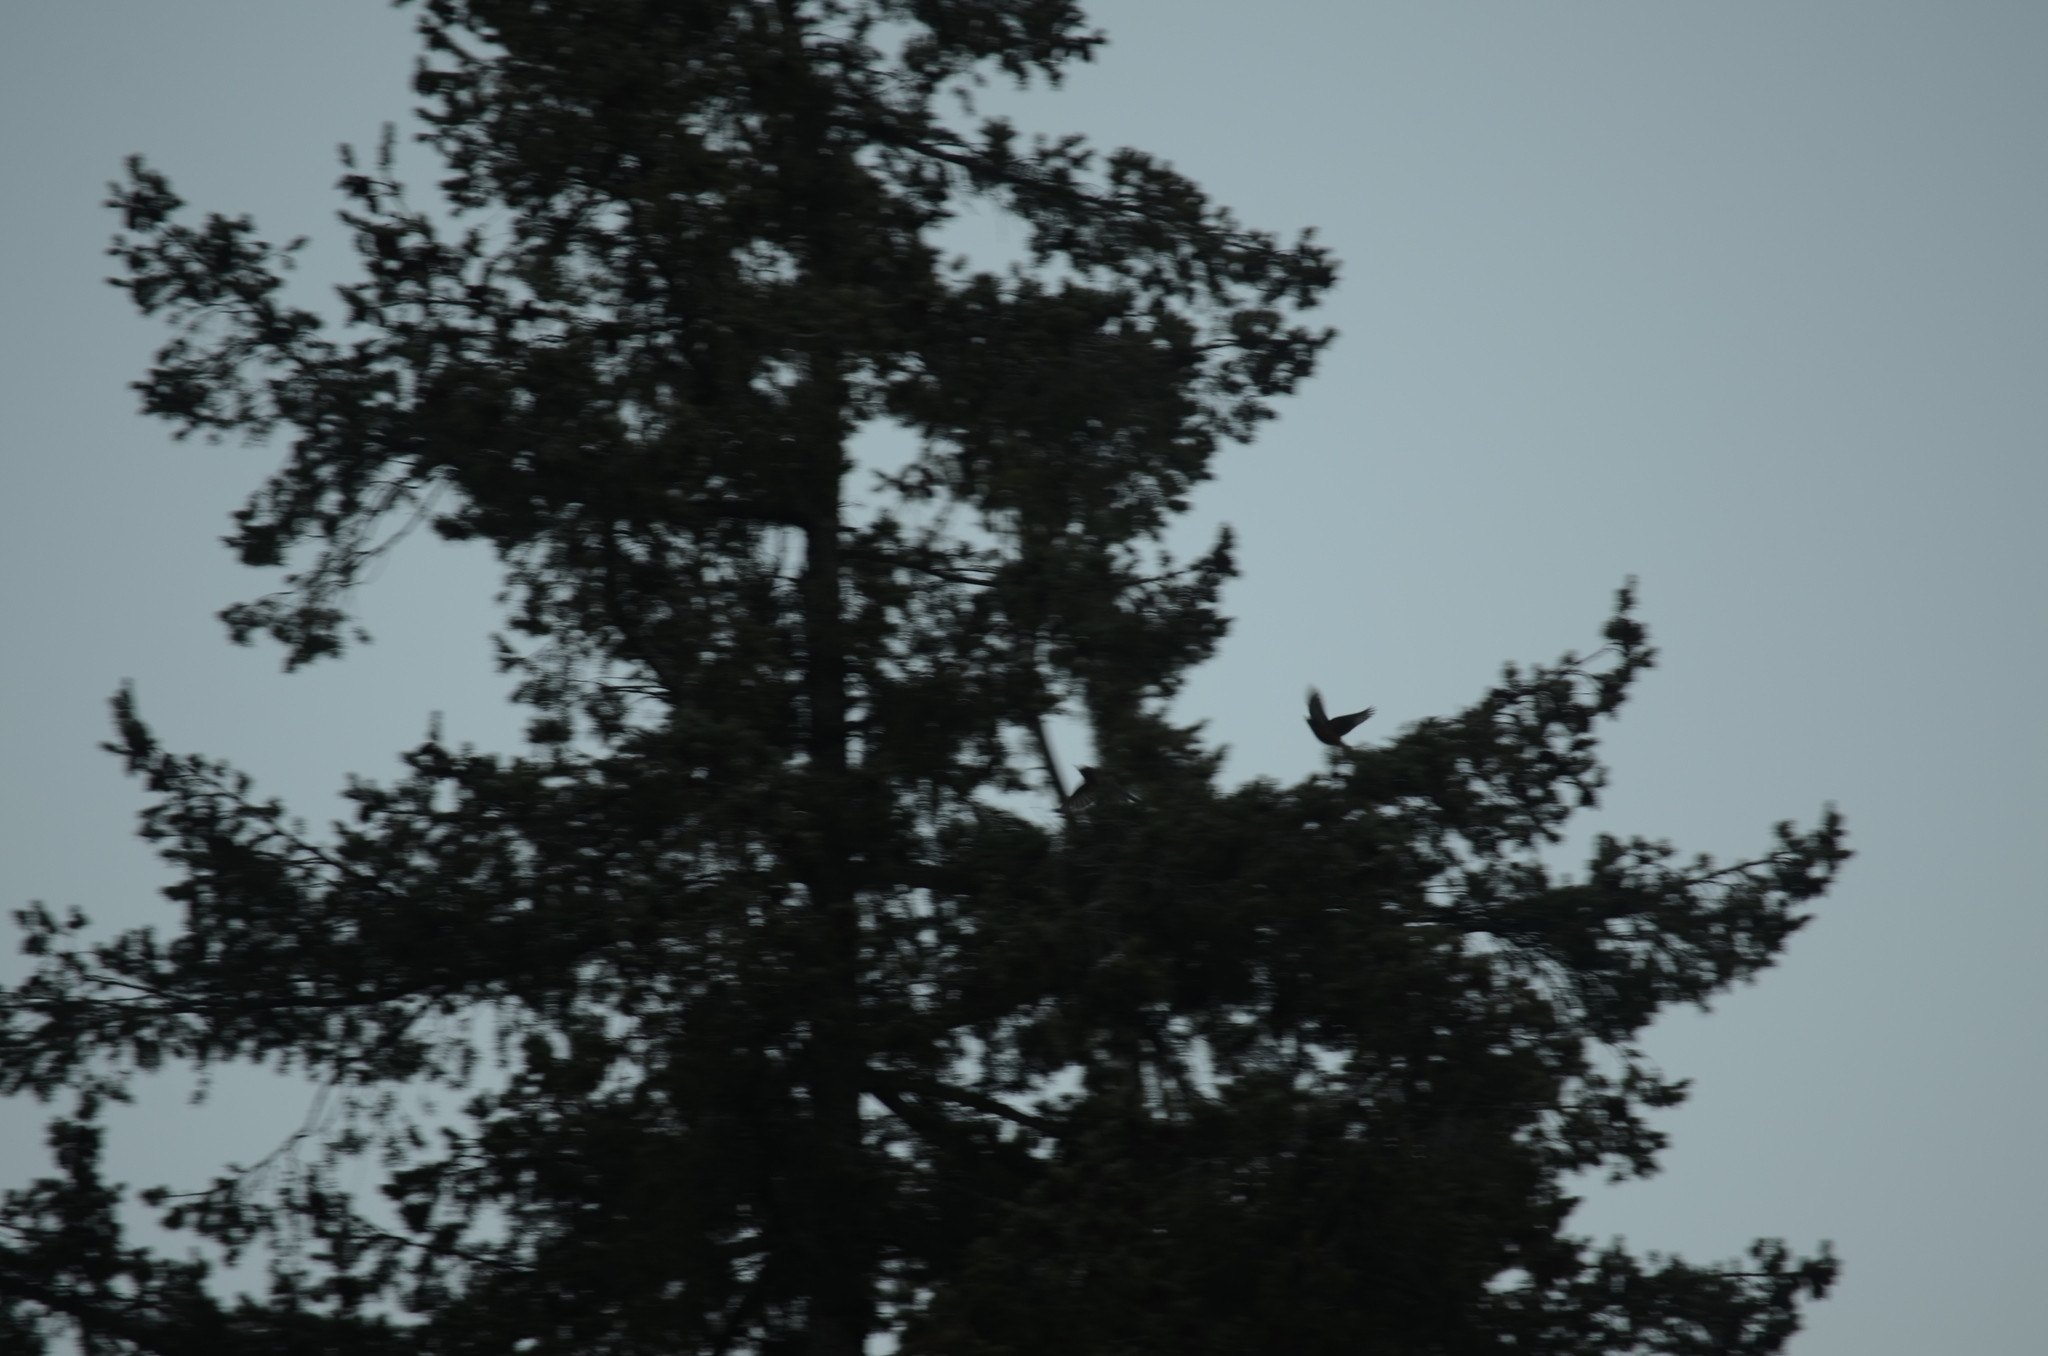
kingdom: Animalia
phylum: Chordata
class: Aves
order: Passeriformes
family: Turdidae
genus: Turdus
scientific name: Turdus migratorius
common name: American robin
